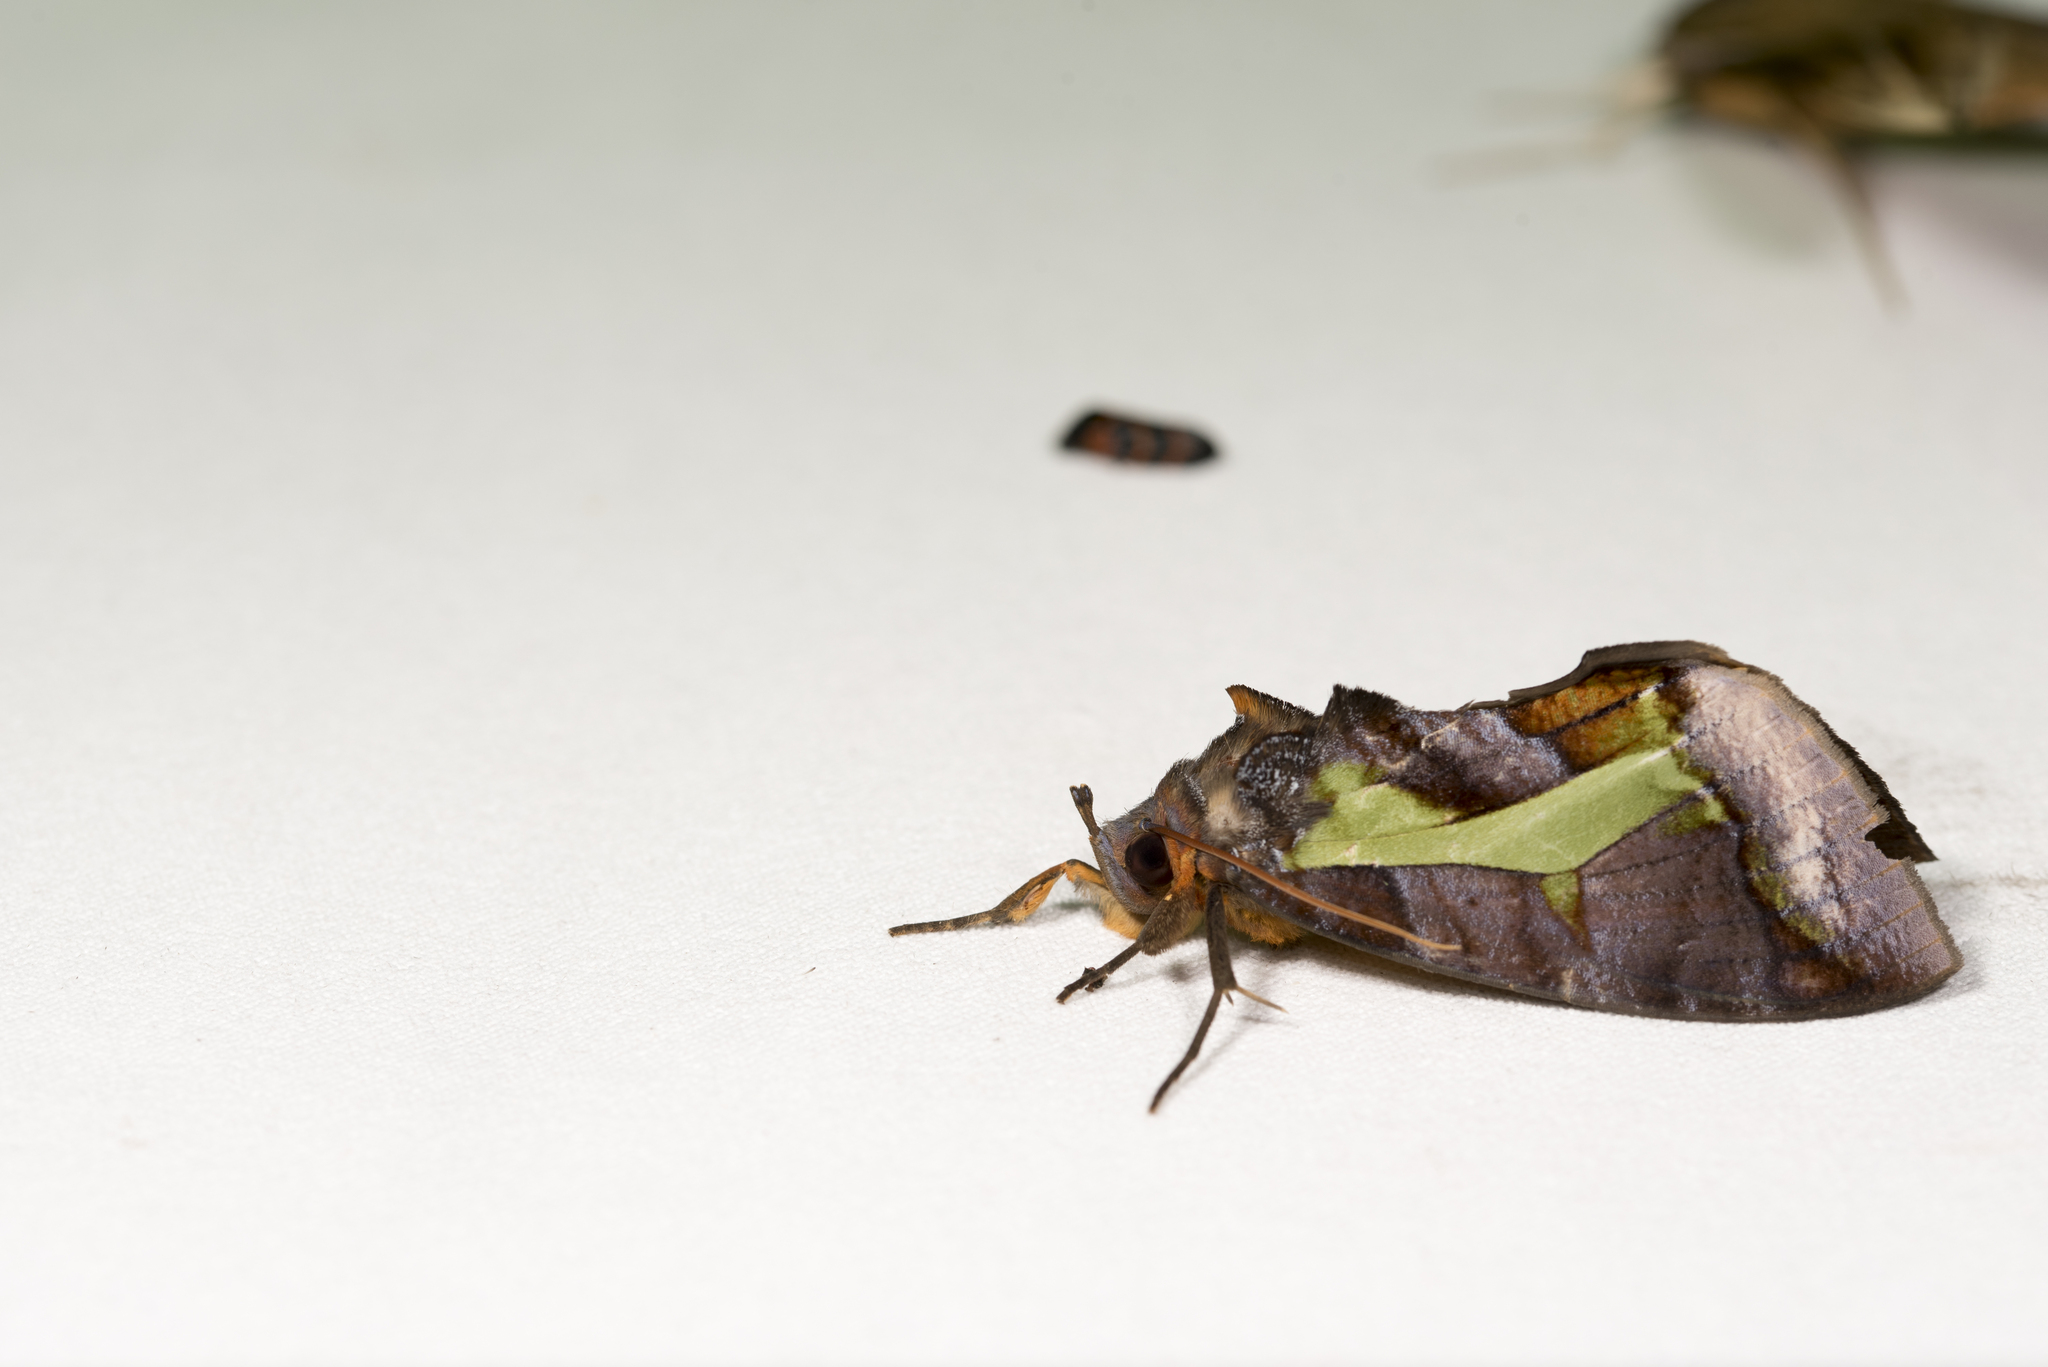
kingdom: Animalia
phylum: Arthropoda
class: Insecta
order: Lepidoptera
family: Erebidae
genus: Eudocima
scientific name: Eudocima homaena
